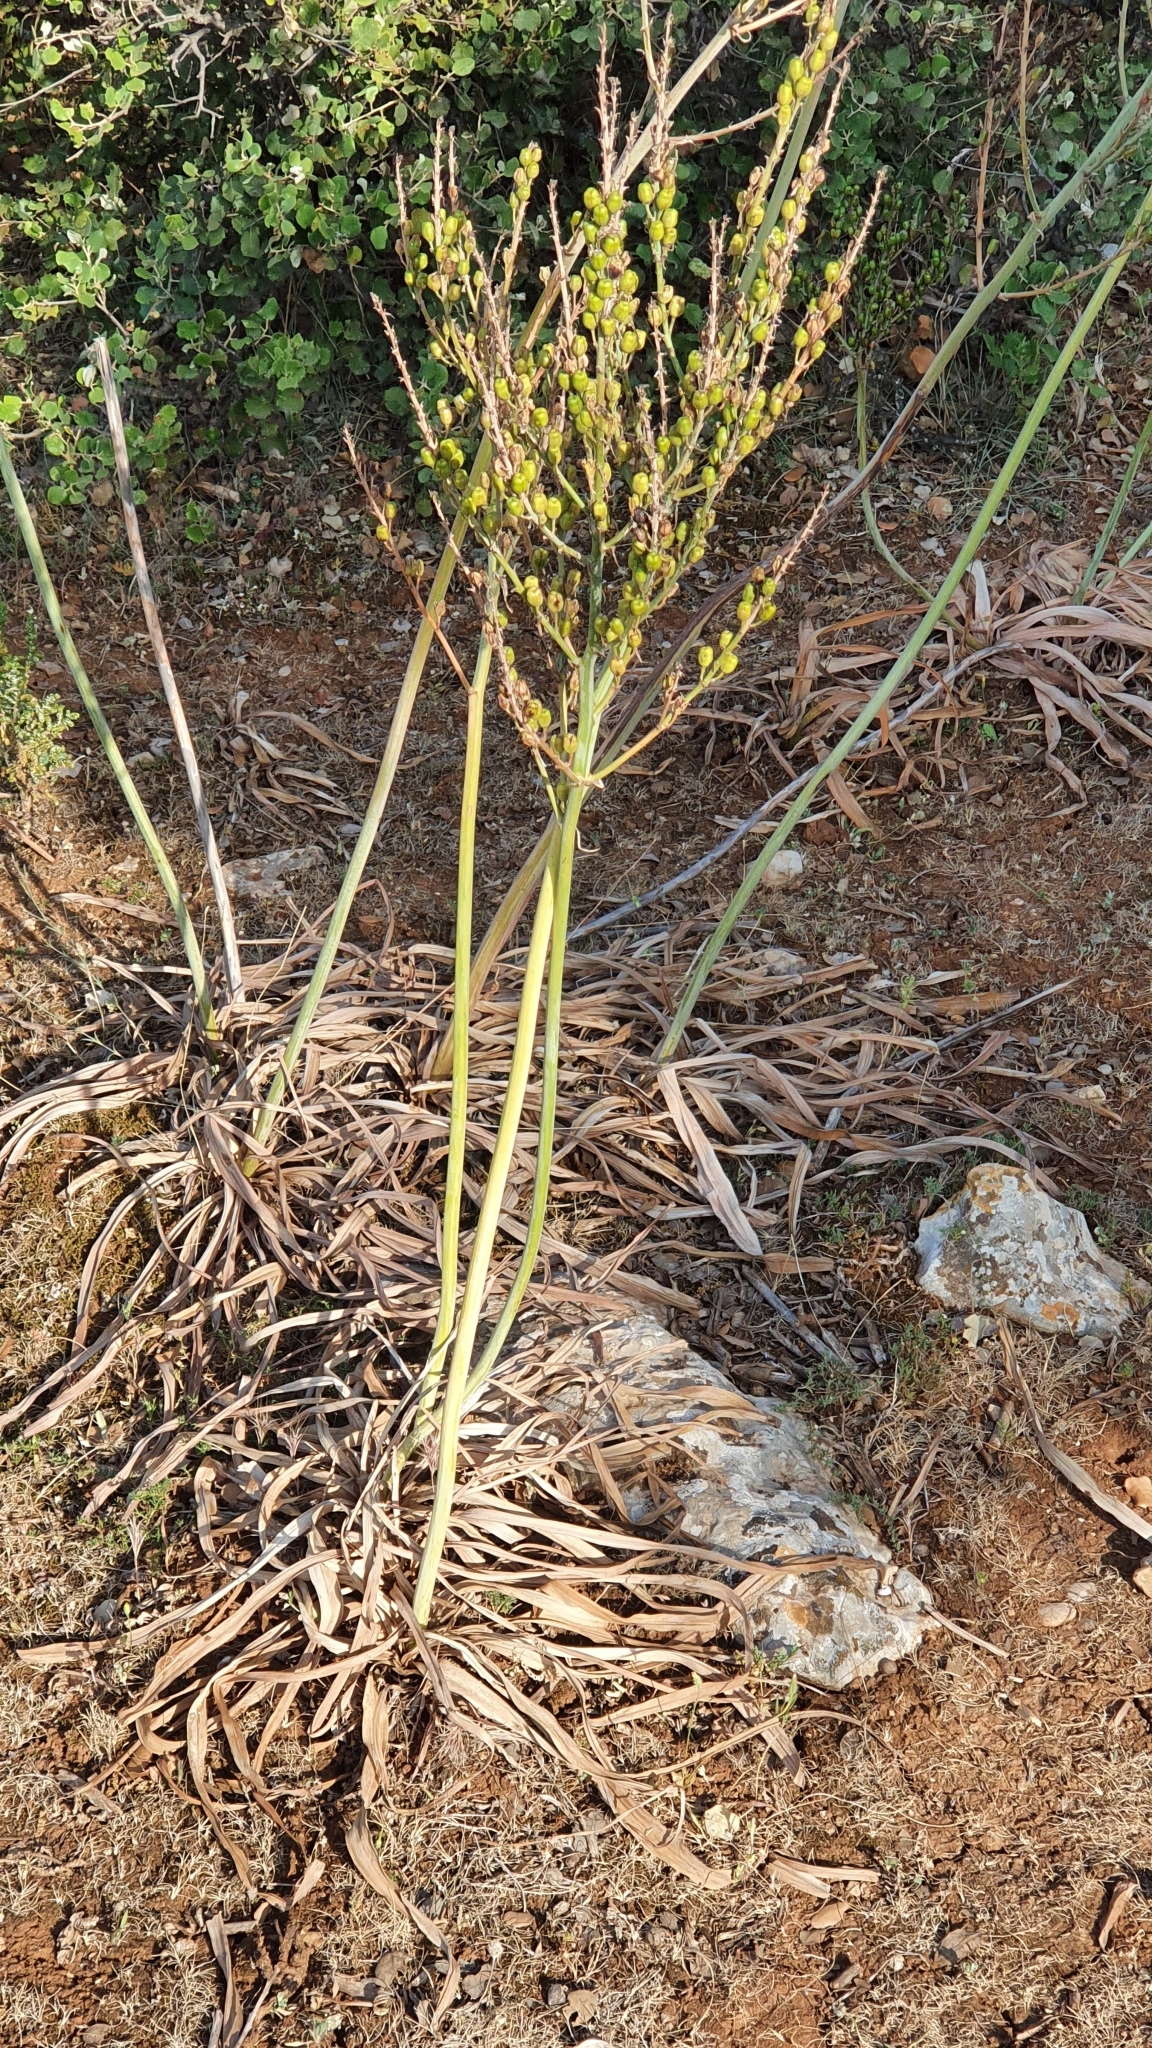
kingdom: Plantae
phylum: Tracheophyta
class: Liliopsida
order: Asparagales
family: Asphodelaceae
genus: Asphodelus
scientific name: Asphodelus ramosus
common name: Silverrod
